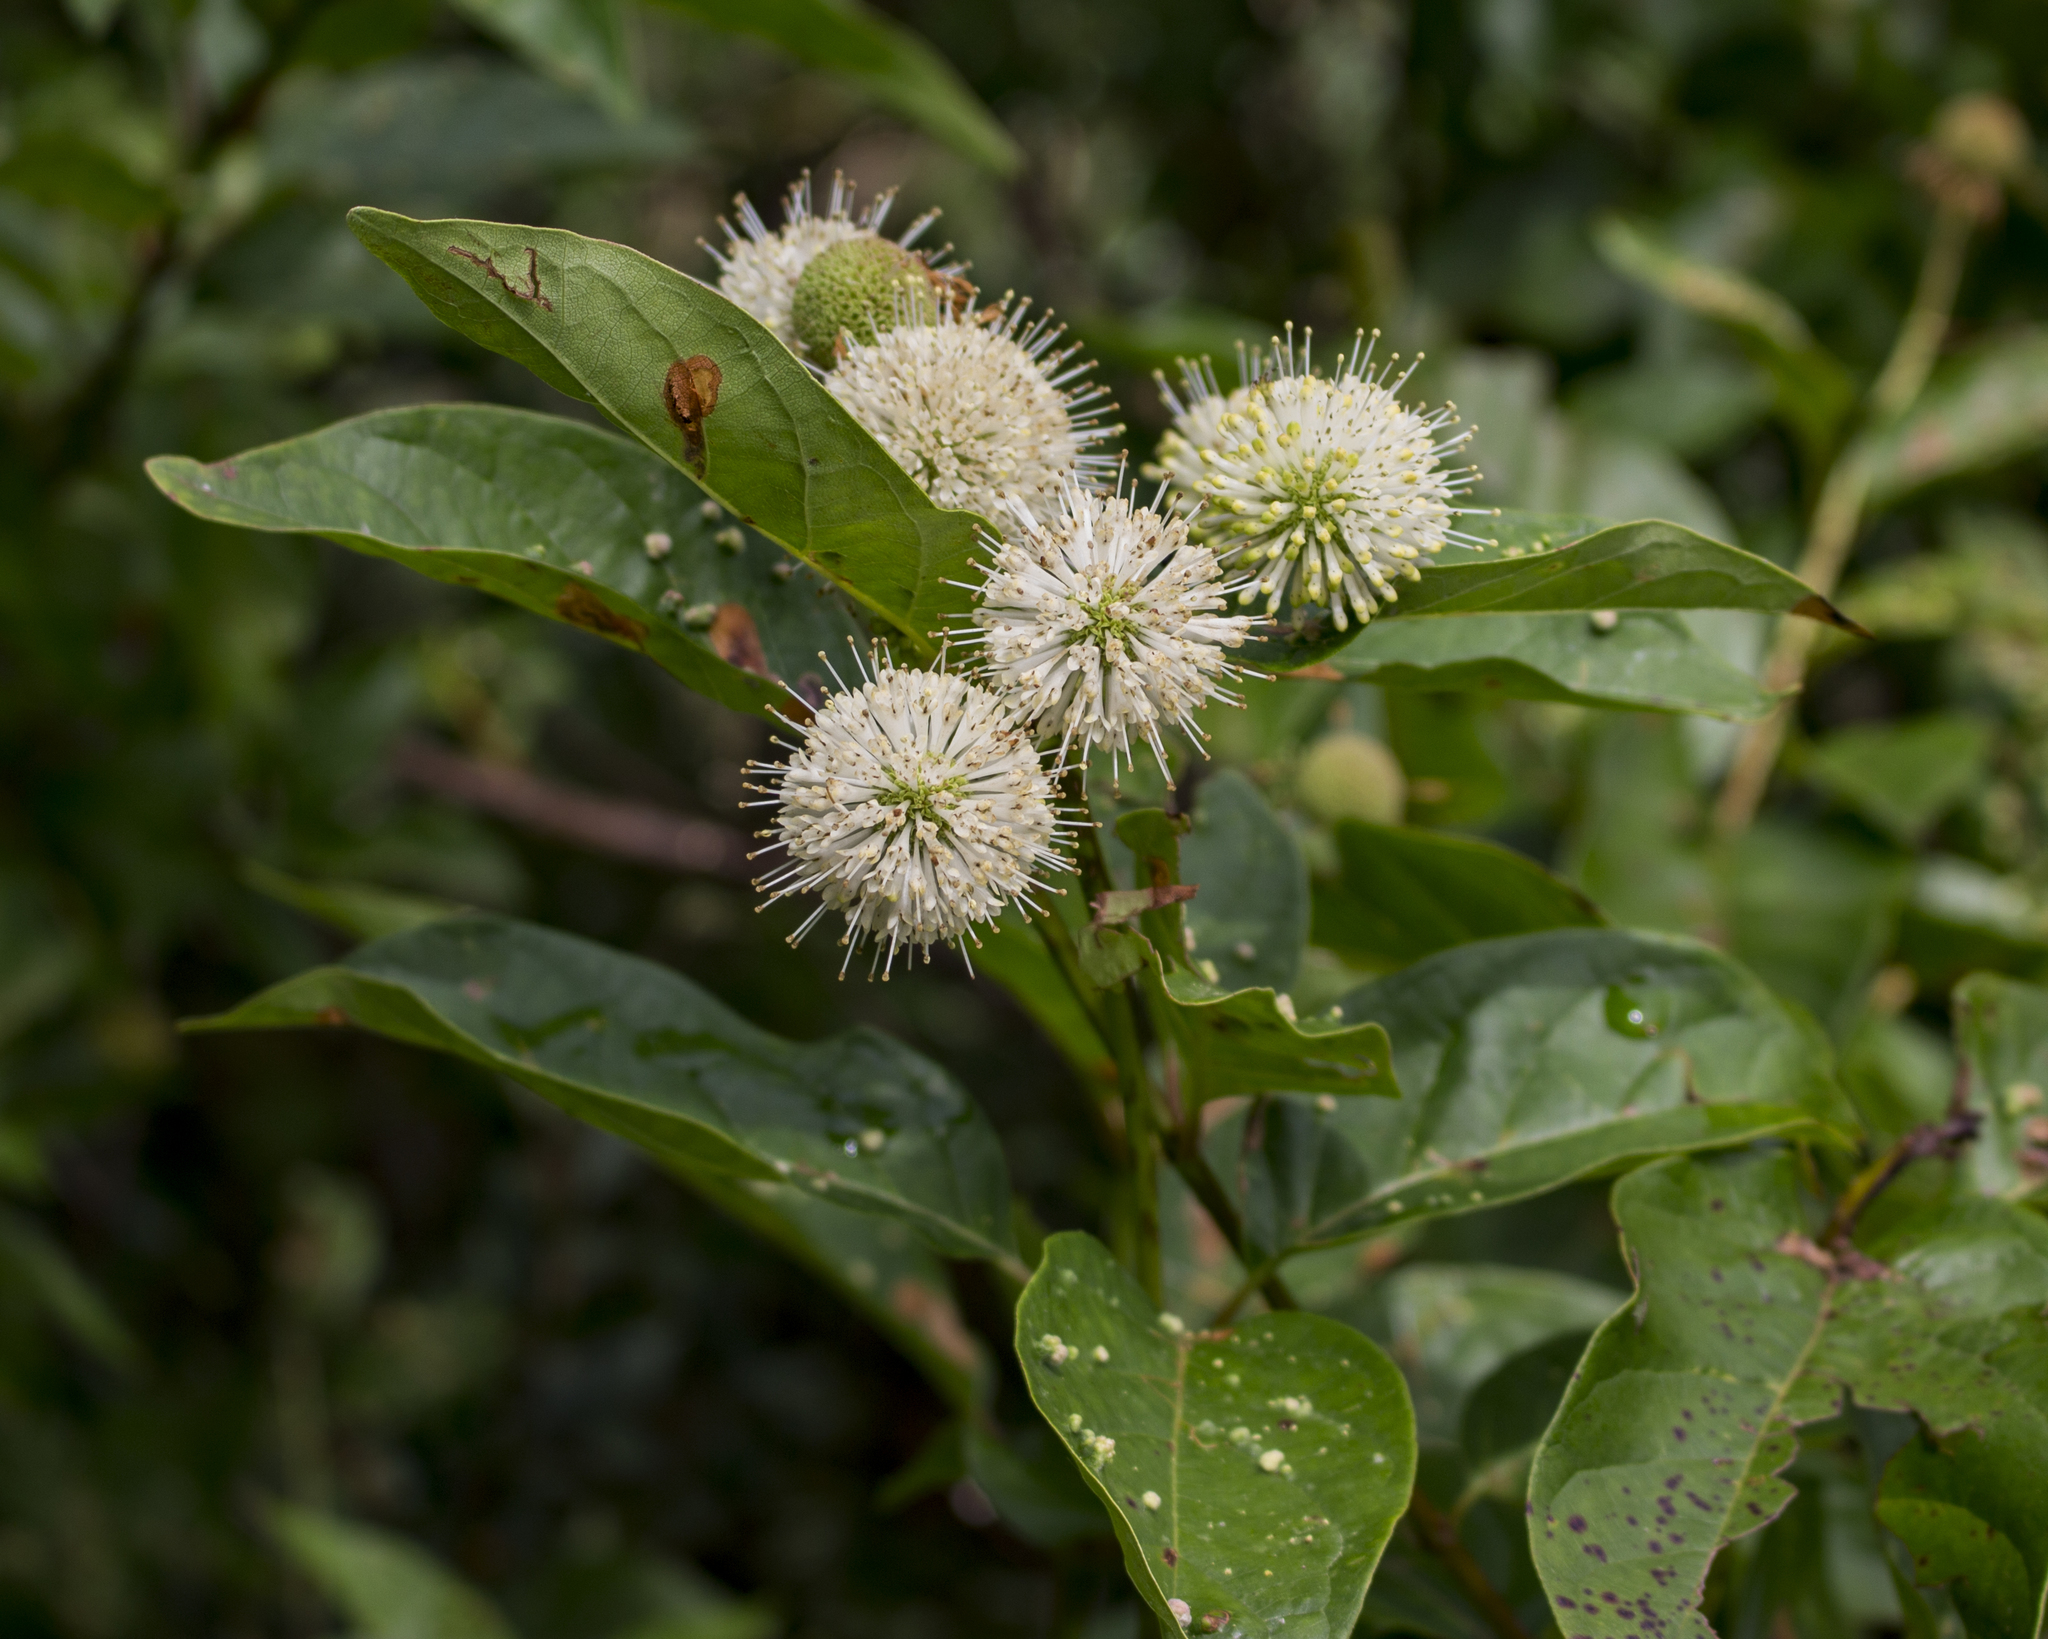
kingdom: Plantae
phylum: Tracheophyta
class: Magnoliopsida
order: Gentianales
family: Rubiaceae
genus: Cephalanthus
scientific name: Cephalanthus occidentalis
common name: Button-willow
